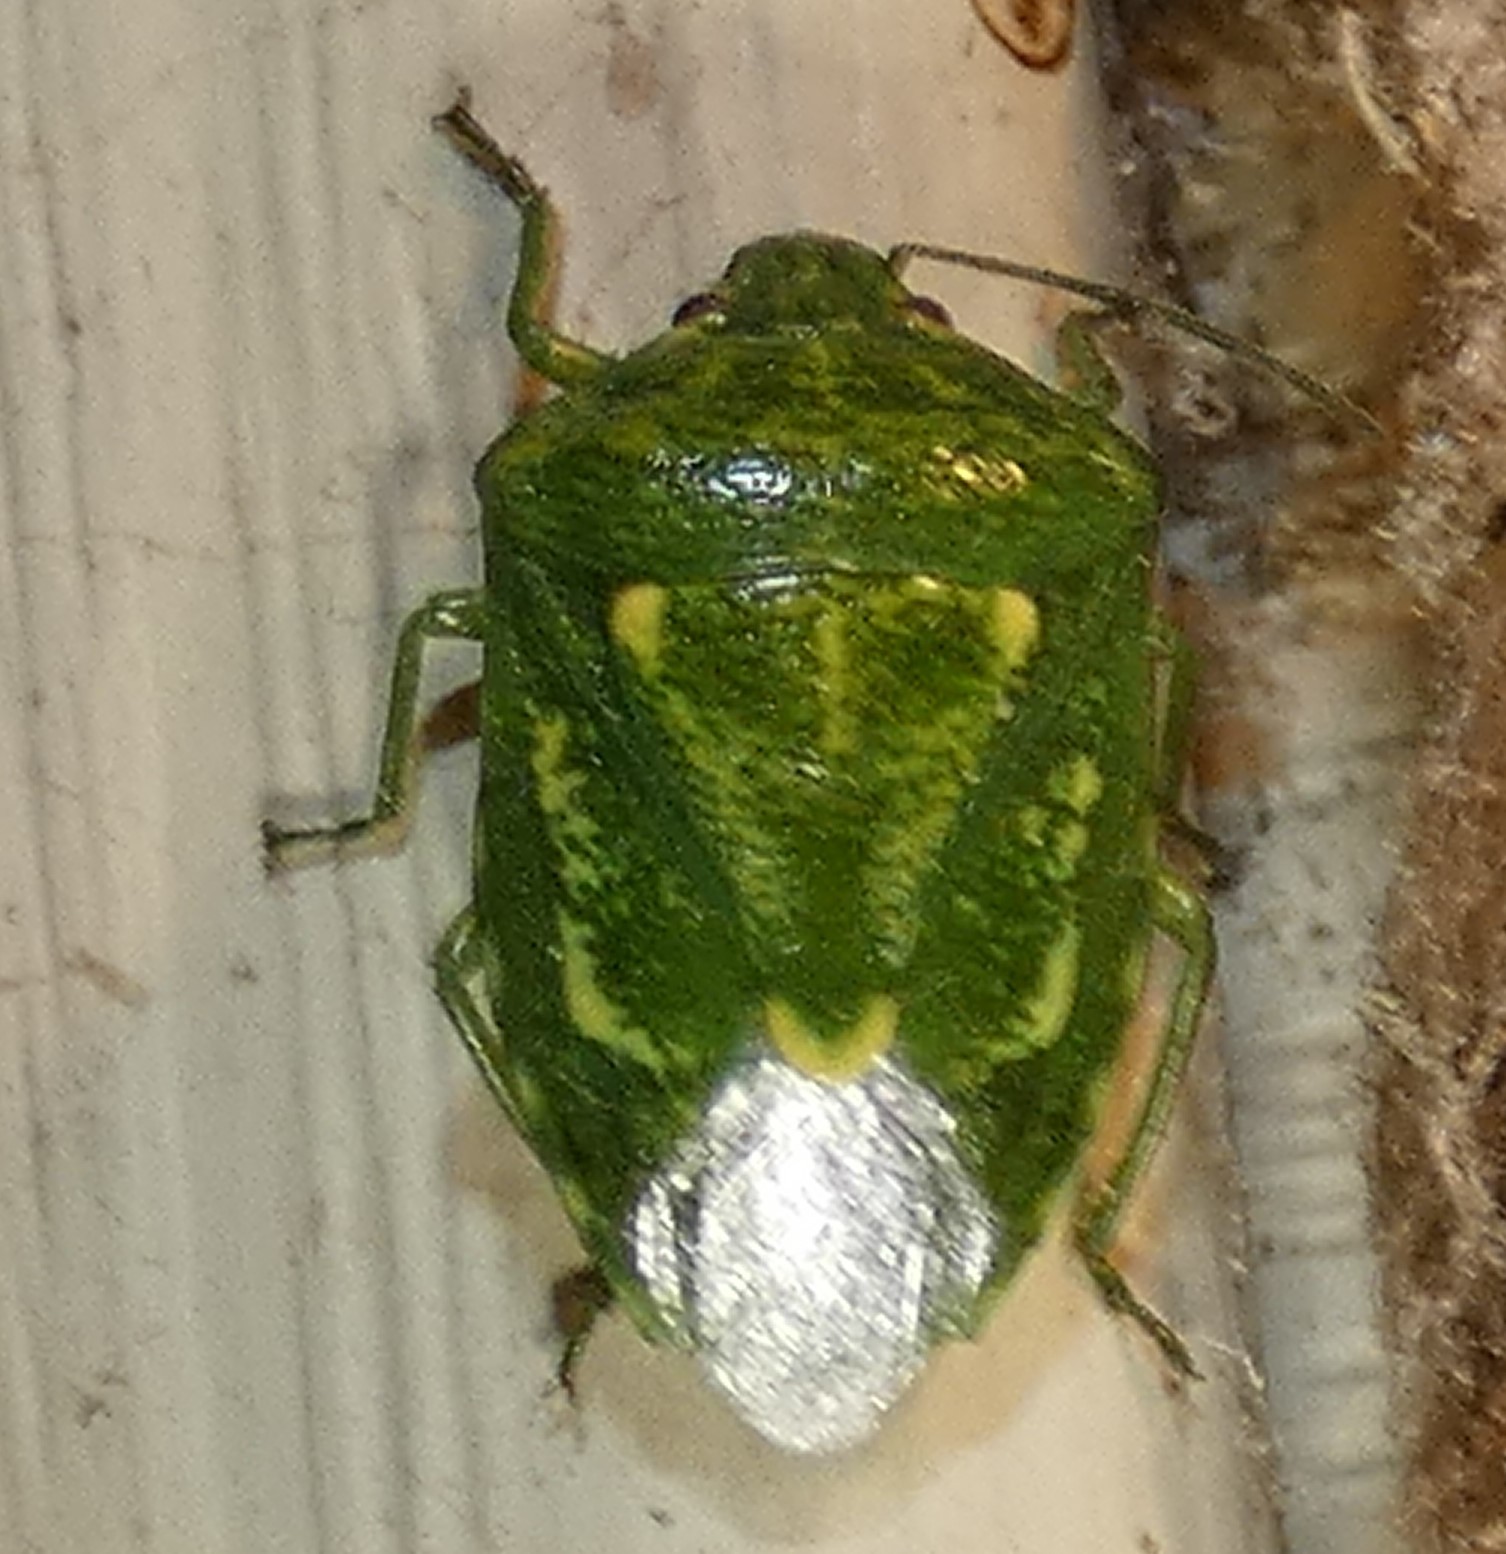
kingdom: Animalia
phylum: Arthropoda
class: Insecta
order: Hemiptera
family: Pentatomidae
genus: Banasa
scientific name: Banasa euchlora
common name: Cedar berry bug
